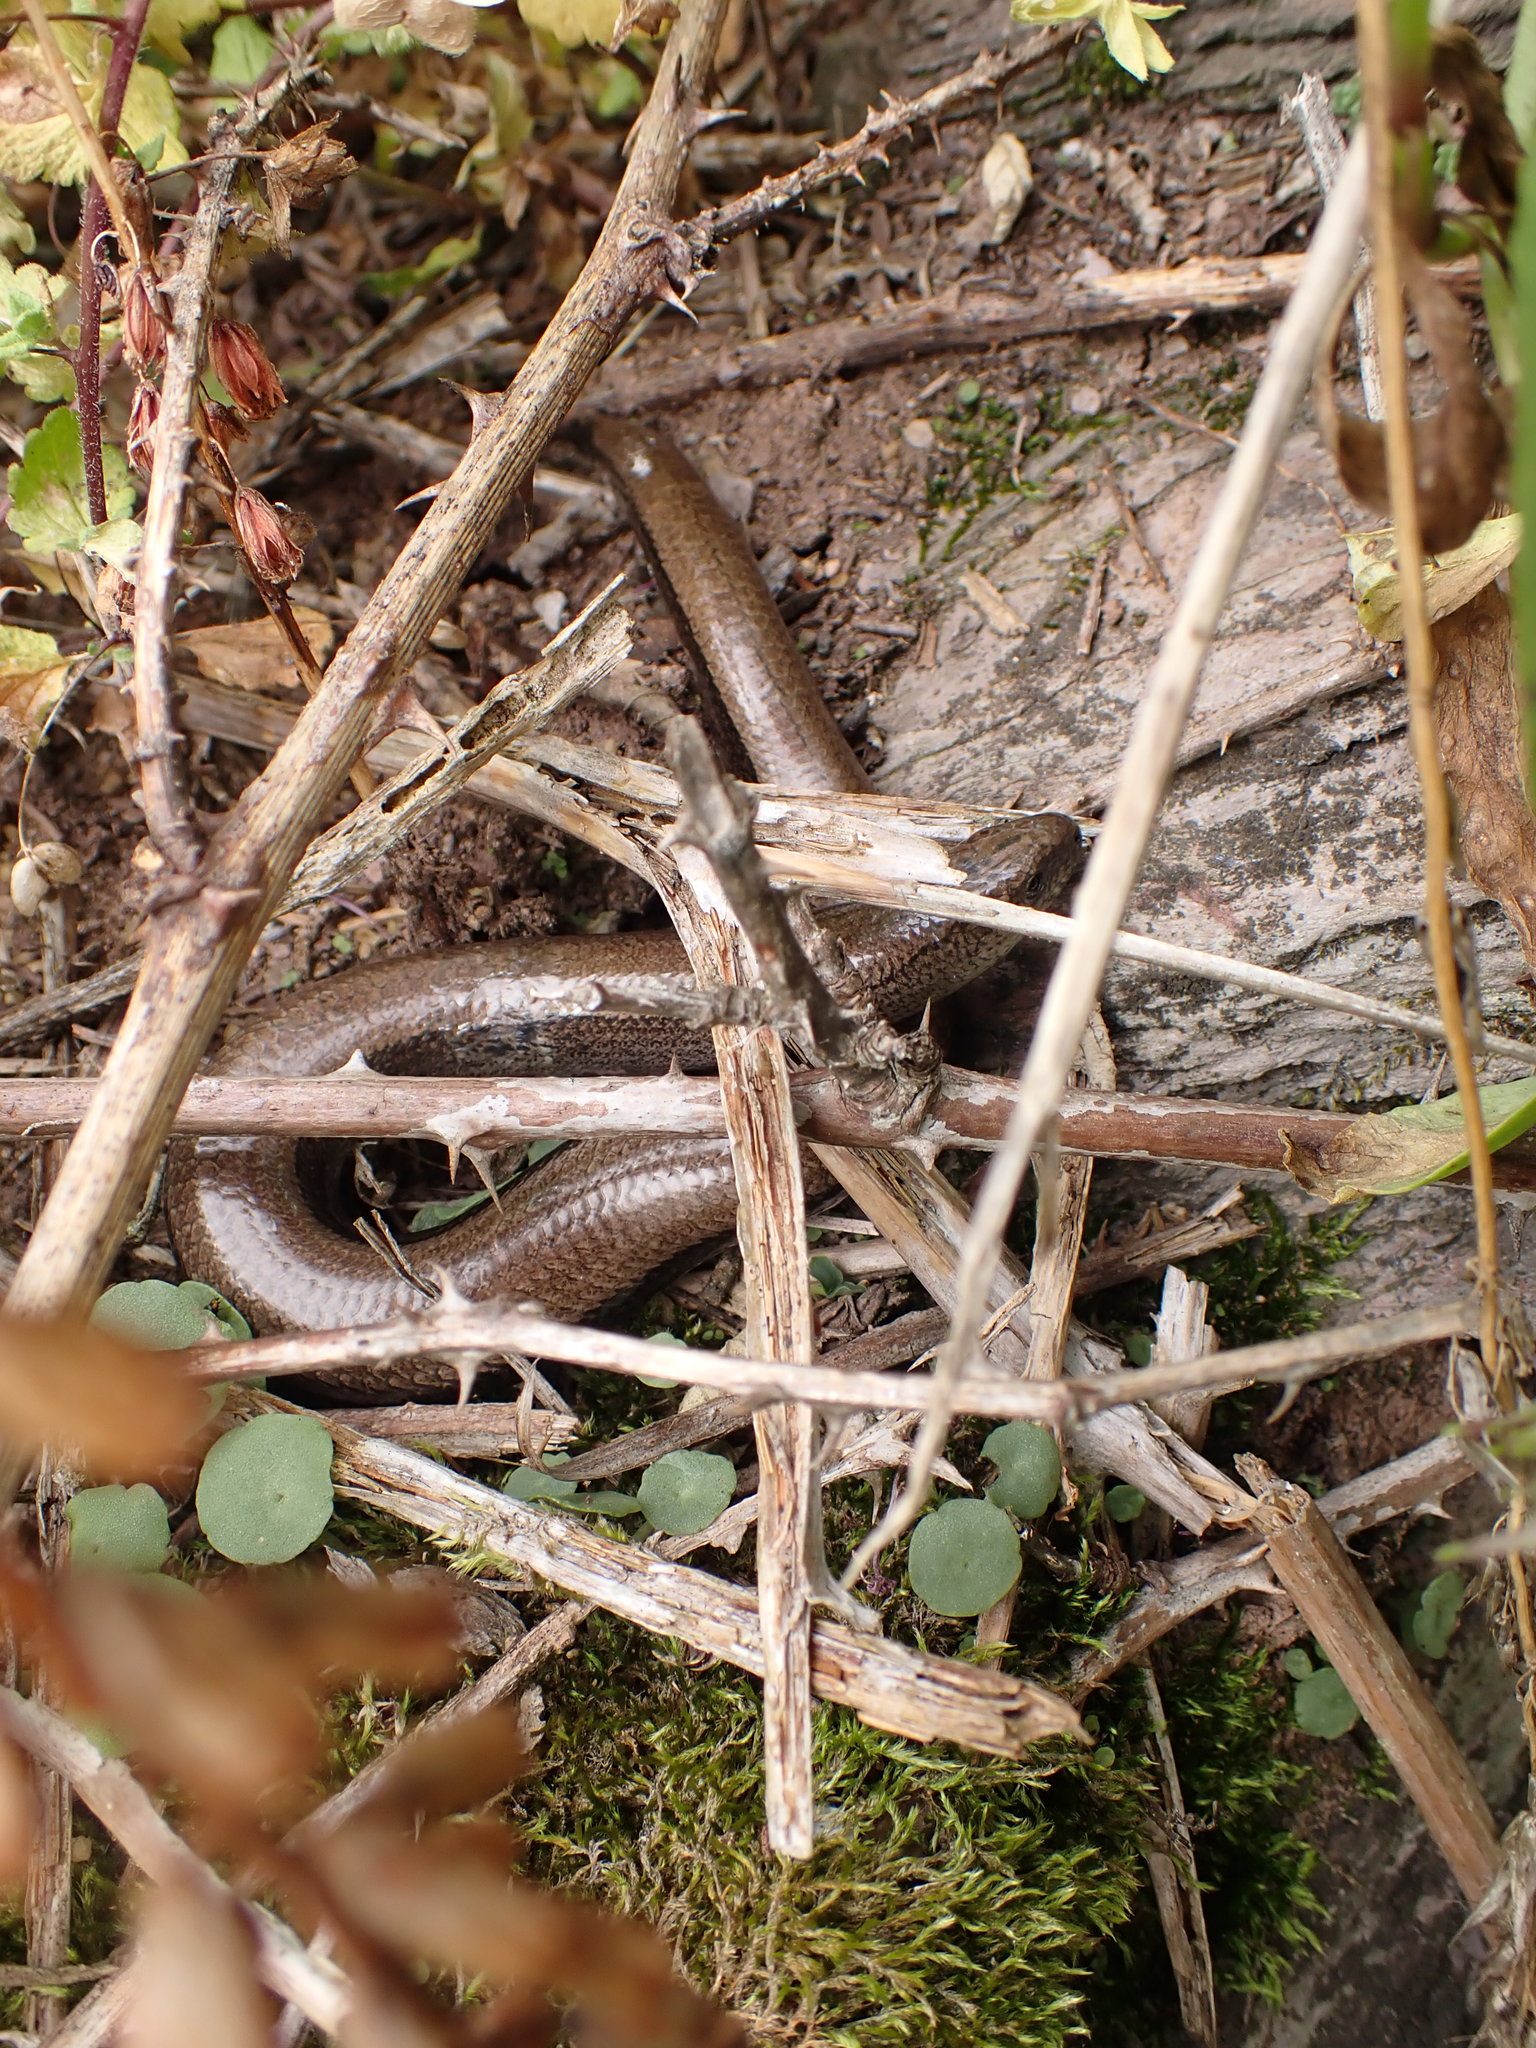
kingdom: Animalia
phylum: Chordata
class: Squamata
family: Anguidae
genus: Anguis
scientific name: Anguis fragilis
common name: Slow worm
